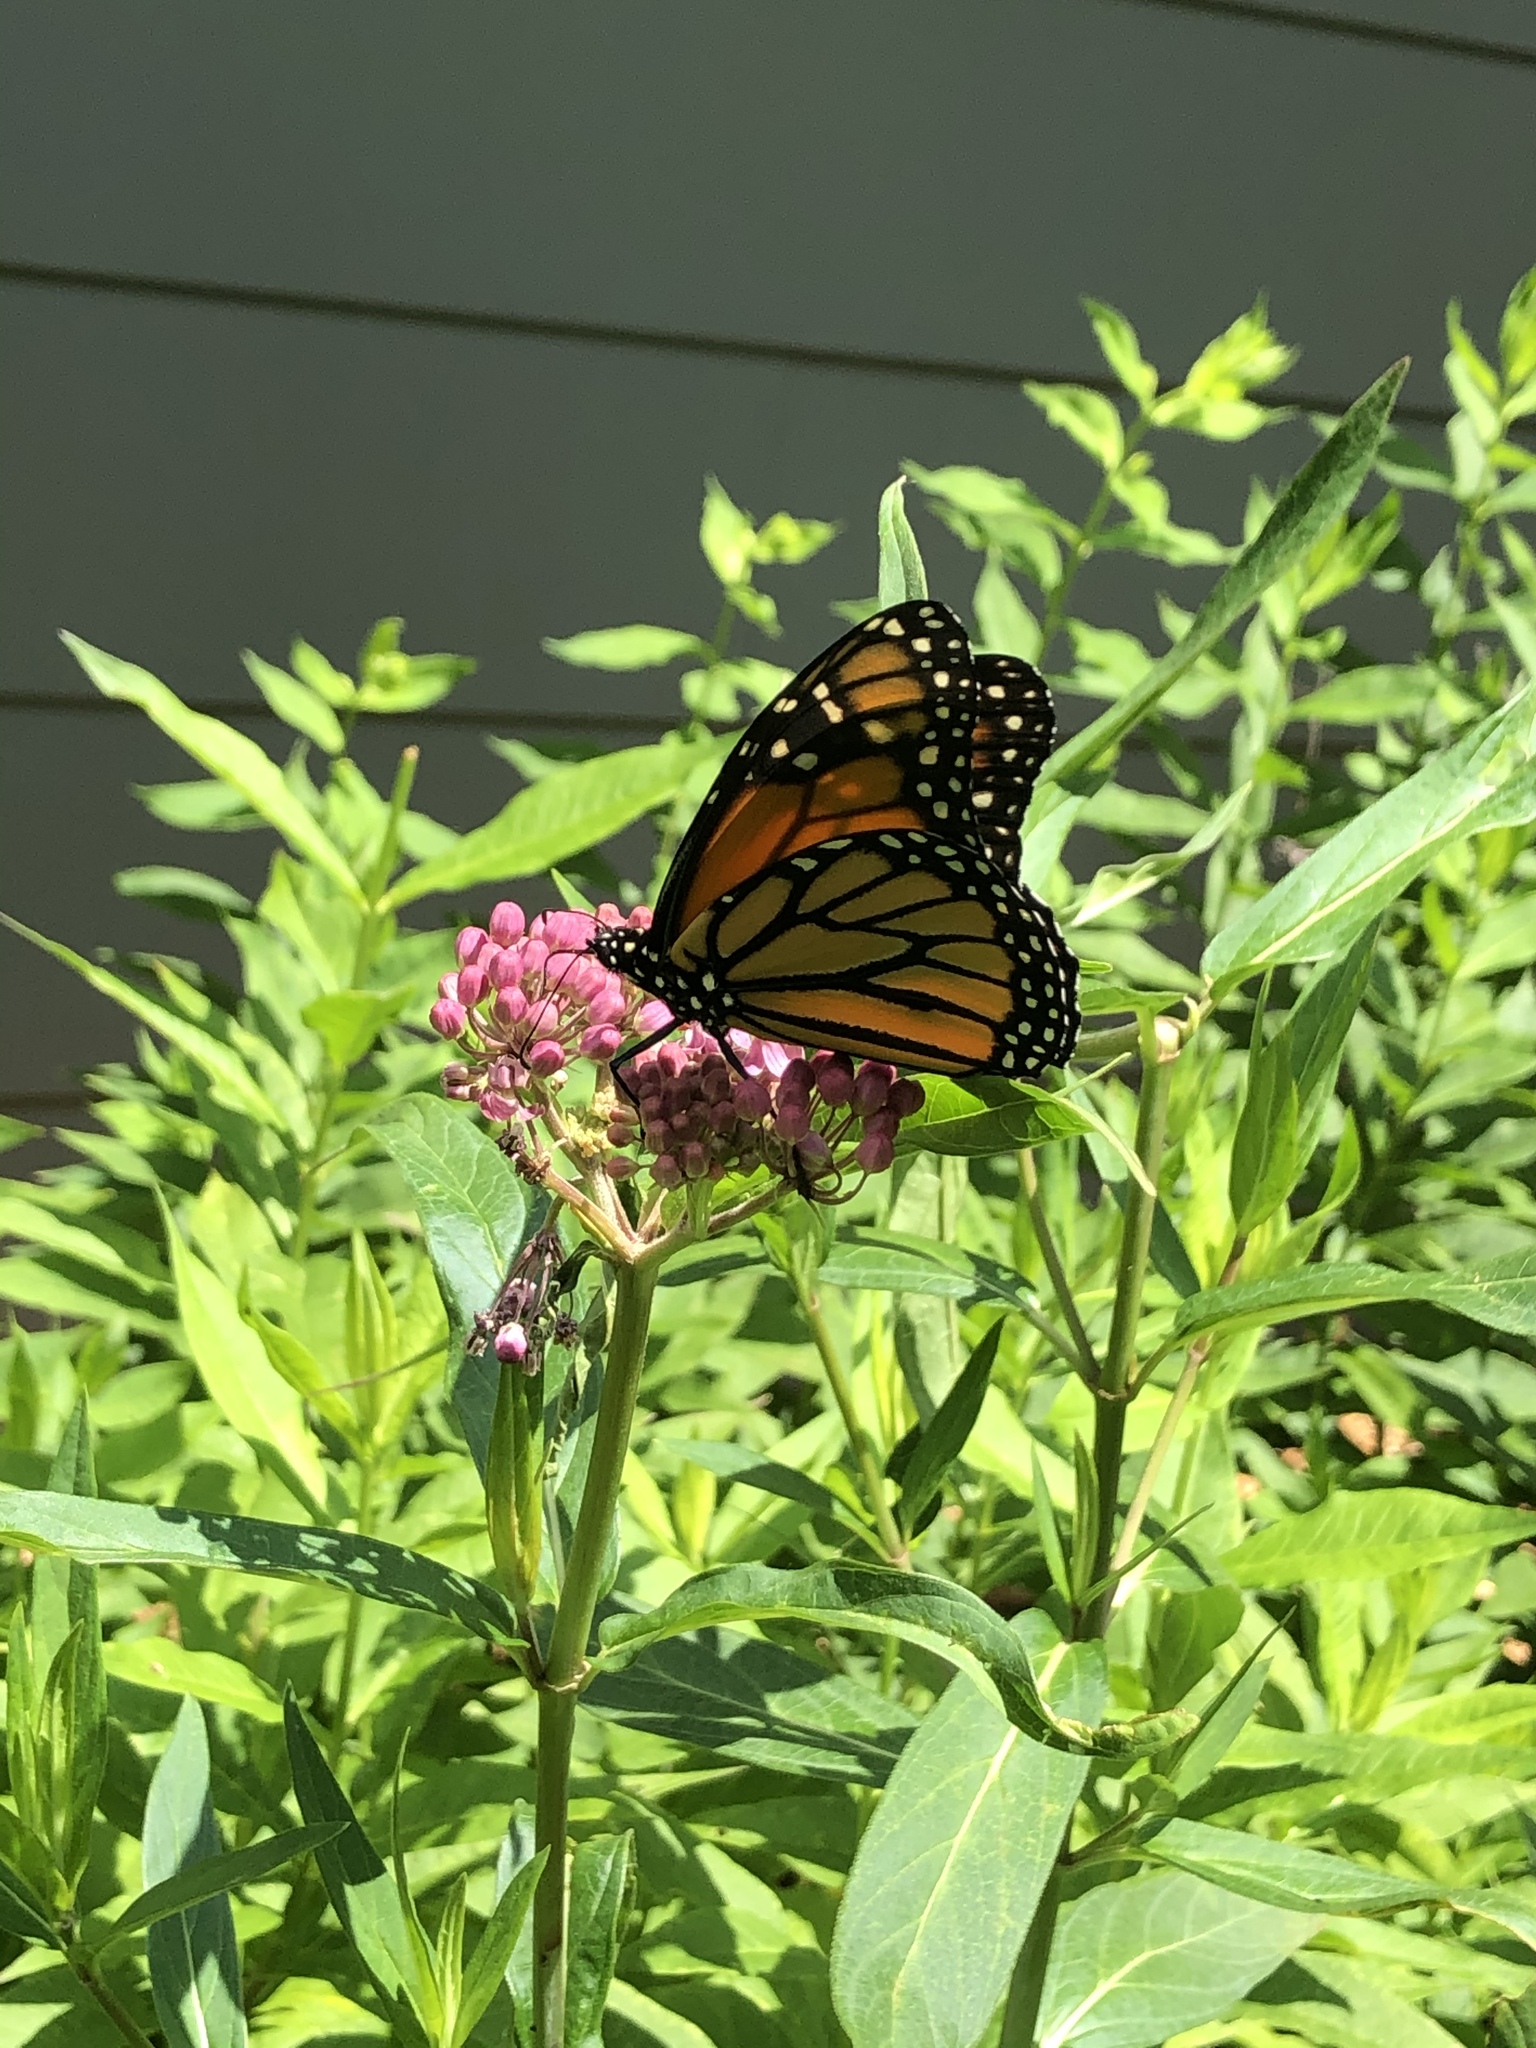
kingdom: Animalia
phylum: Arthropoda
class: Insecta
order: Lepidoptera
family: Nymphalidae
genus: Danaus
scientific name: Danaus plexippus
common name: Monarch
